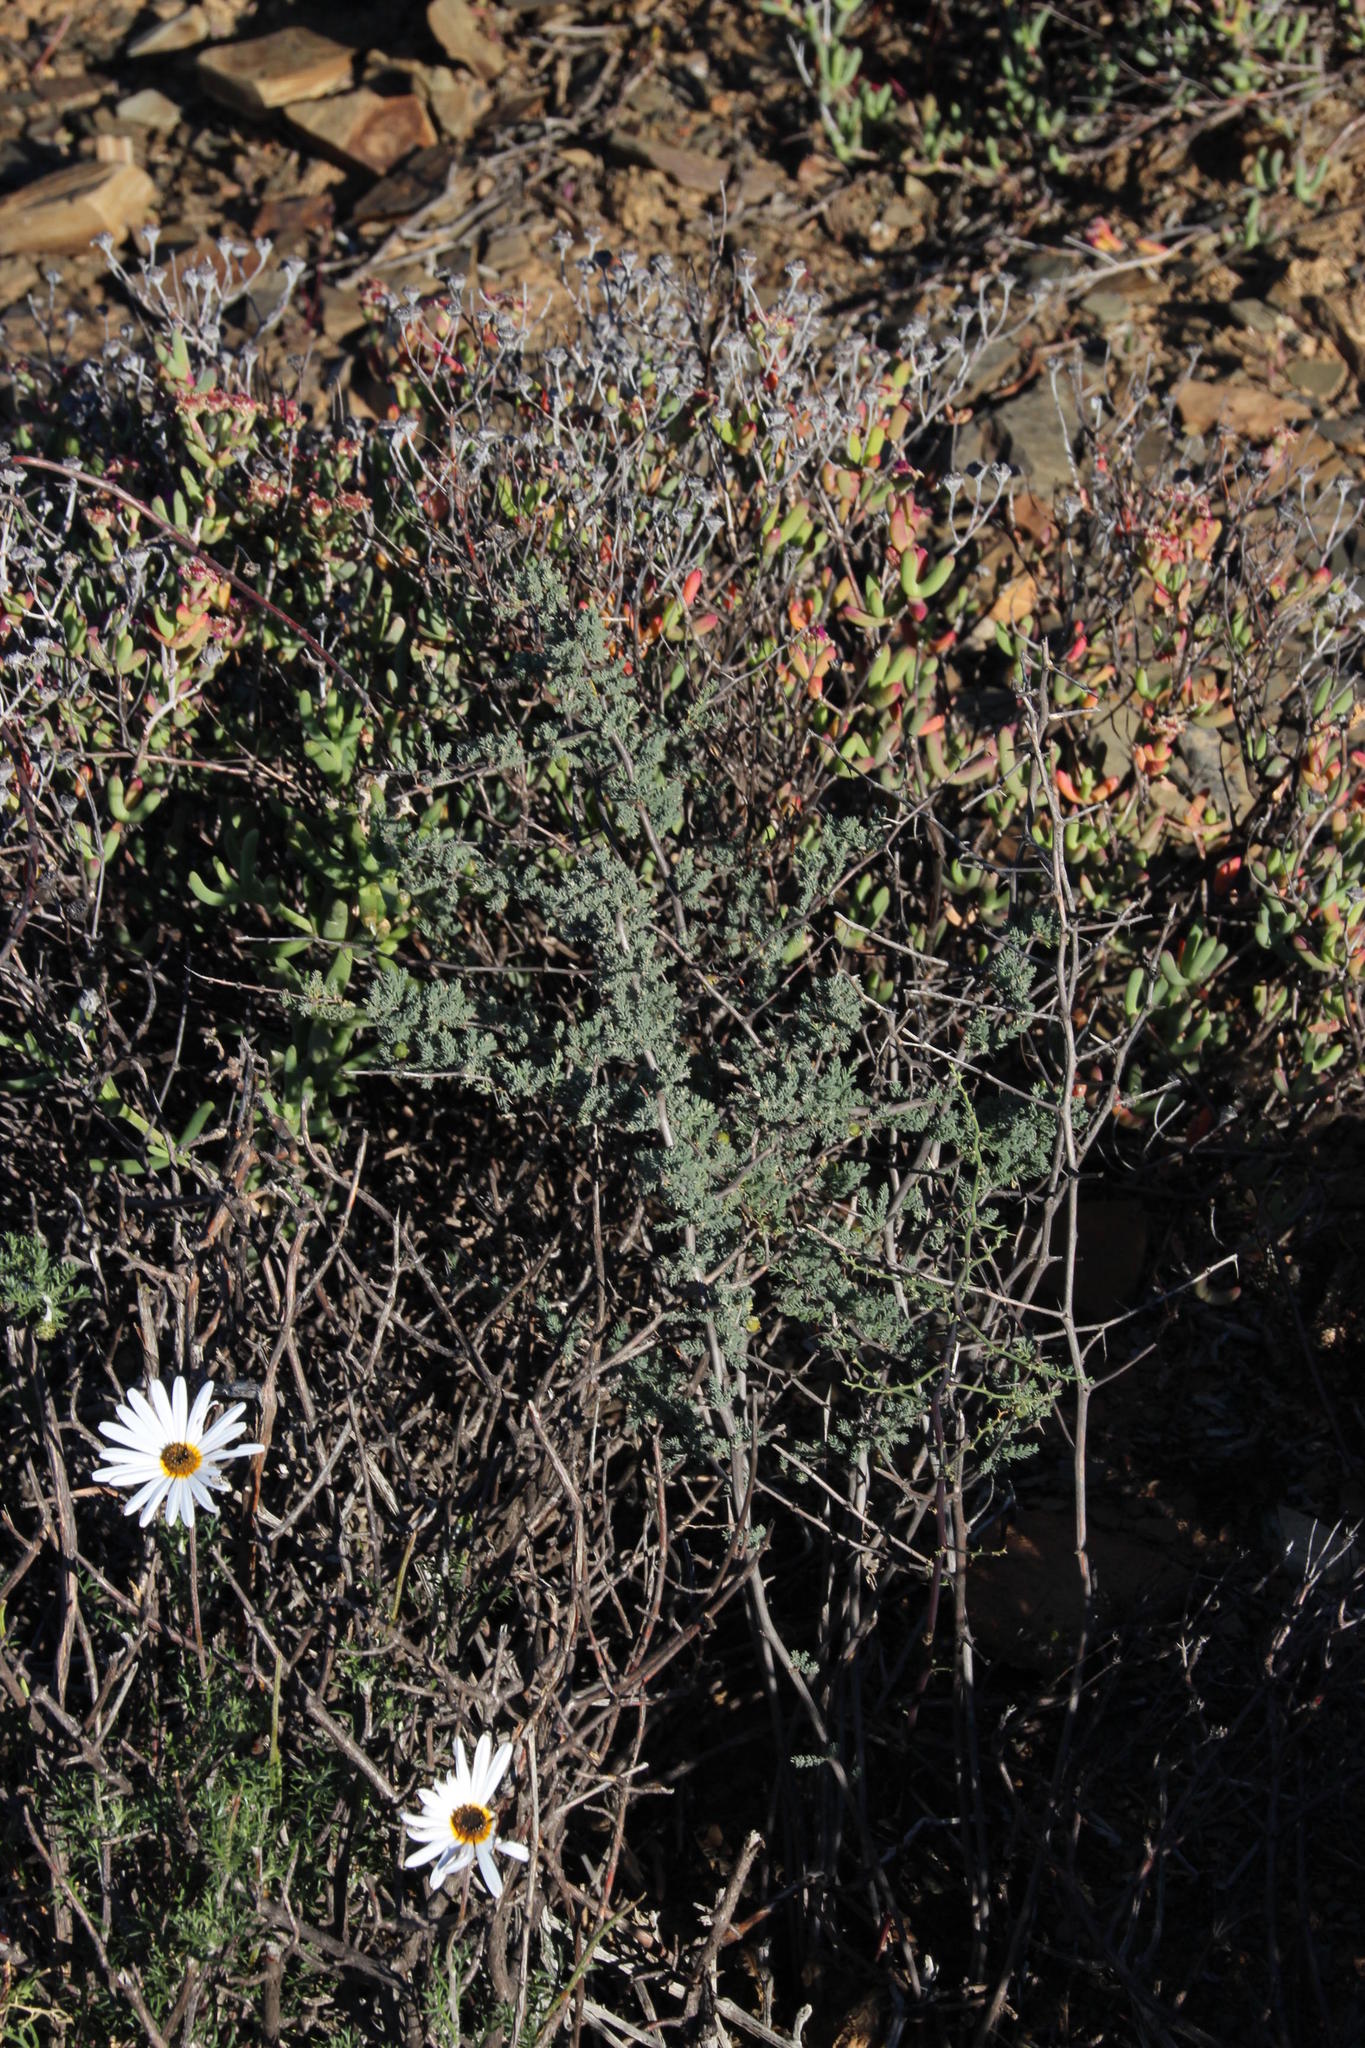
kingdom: Plantae
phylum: Tracheophyta
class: Liliopsida
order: Asparagales
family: Asparagaceae
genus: Asparagus
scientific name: Asparagus capensis
